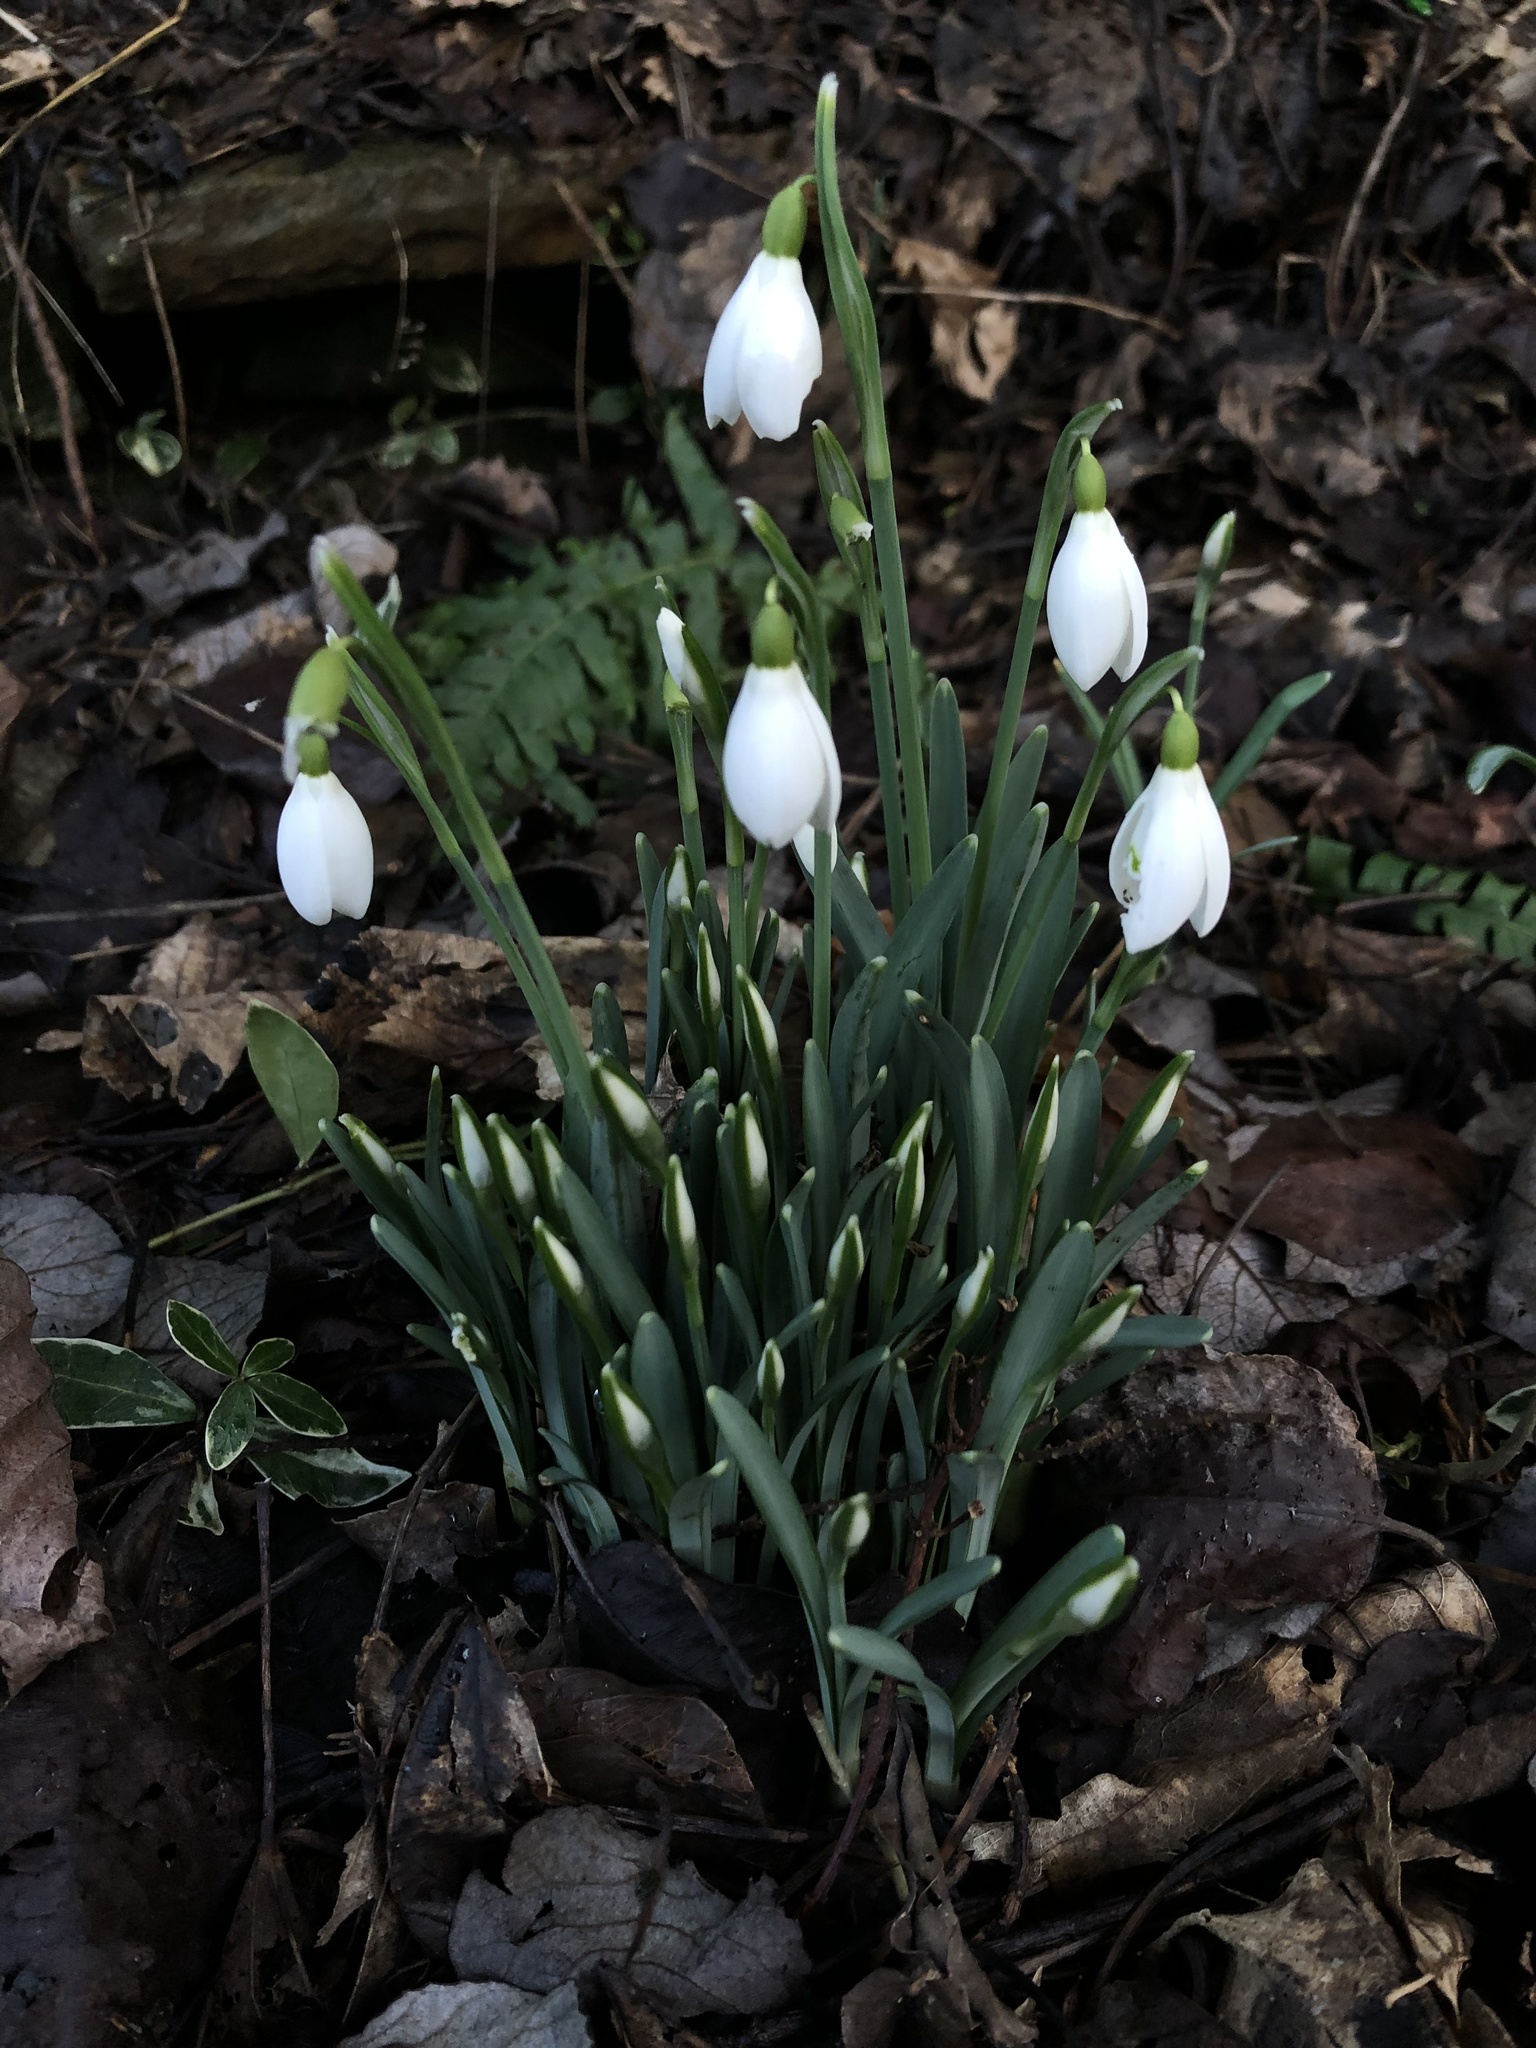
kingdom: Plantae
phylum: Tracheophyta
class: Liliopsida
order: Asparagales
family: Amaryllidaceae
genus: Galanthus
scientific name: Galanthus nivalis
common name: Snowdrop
